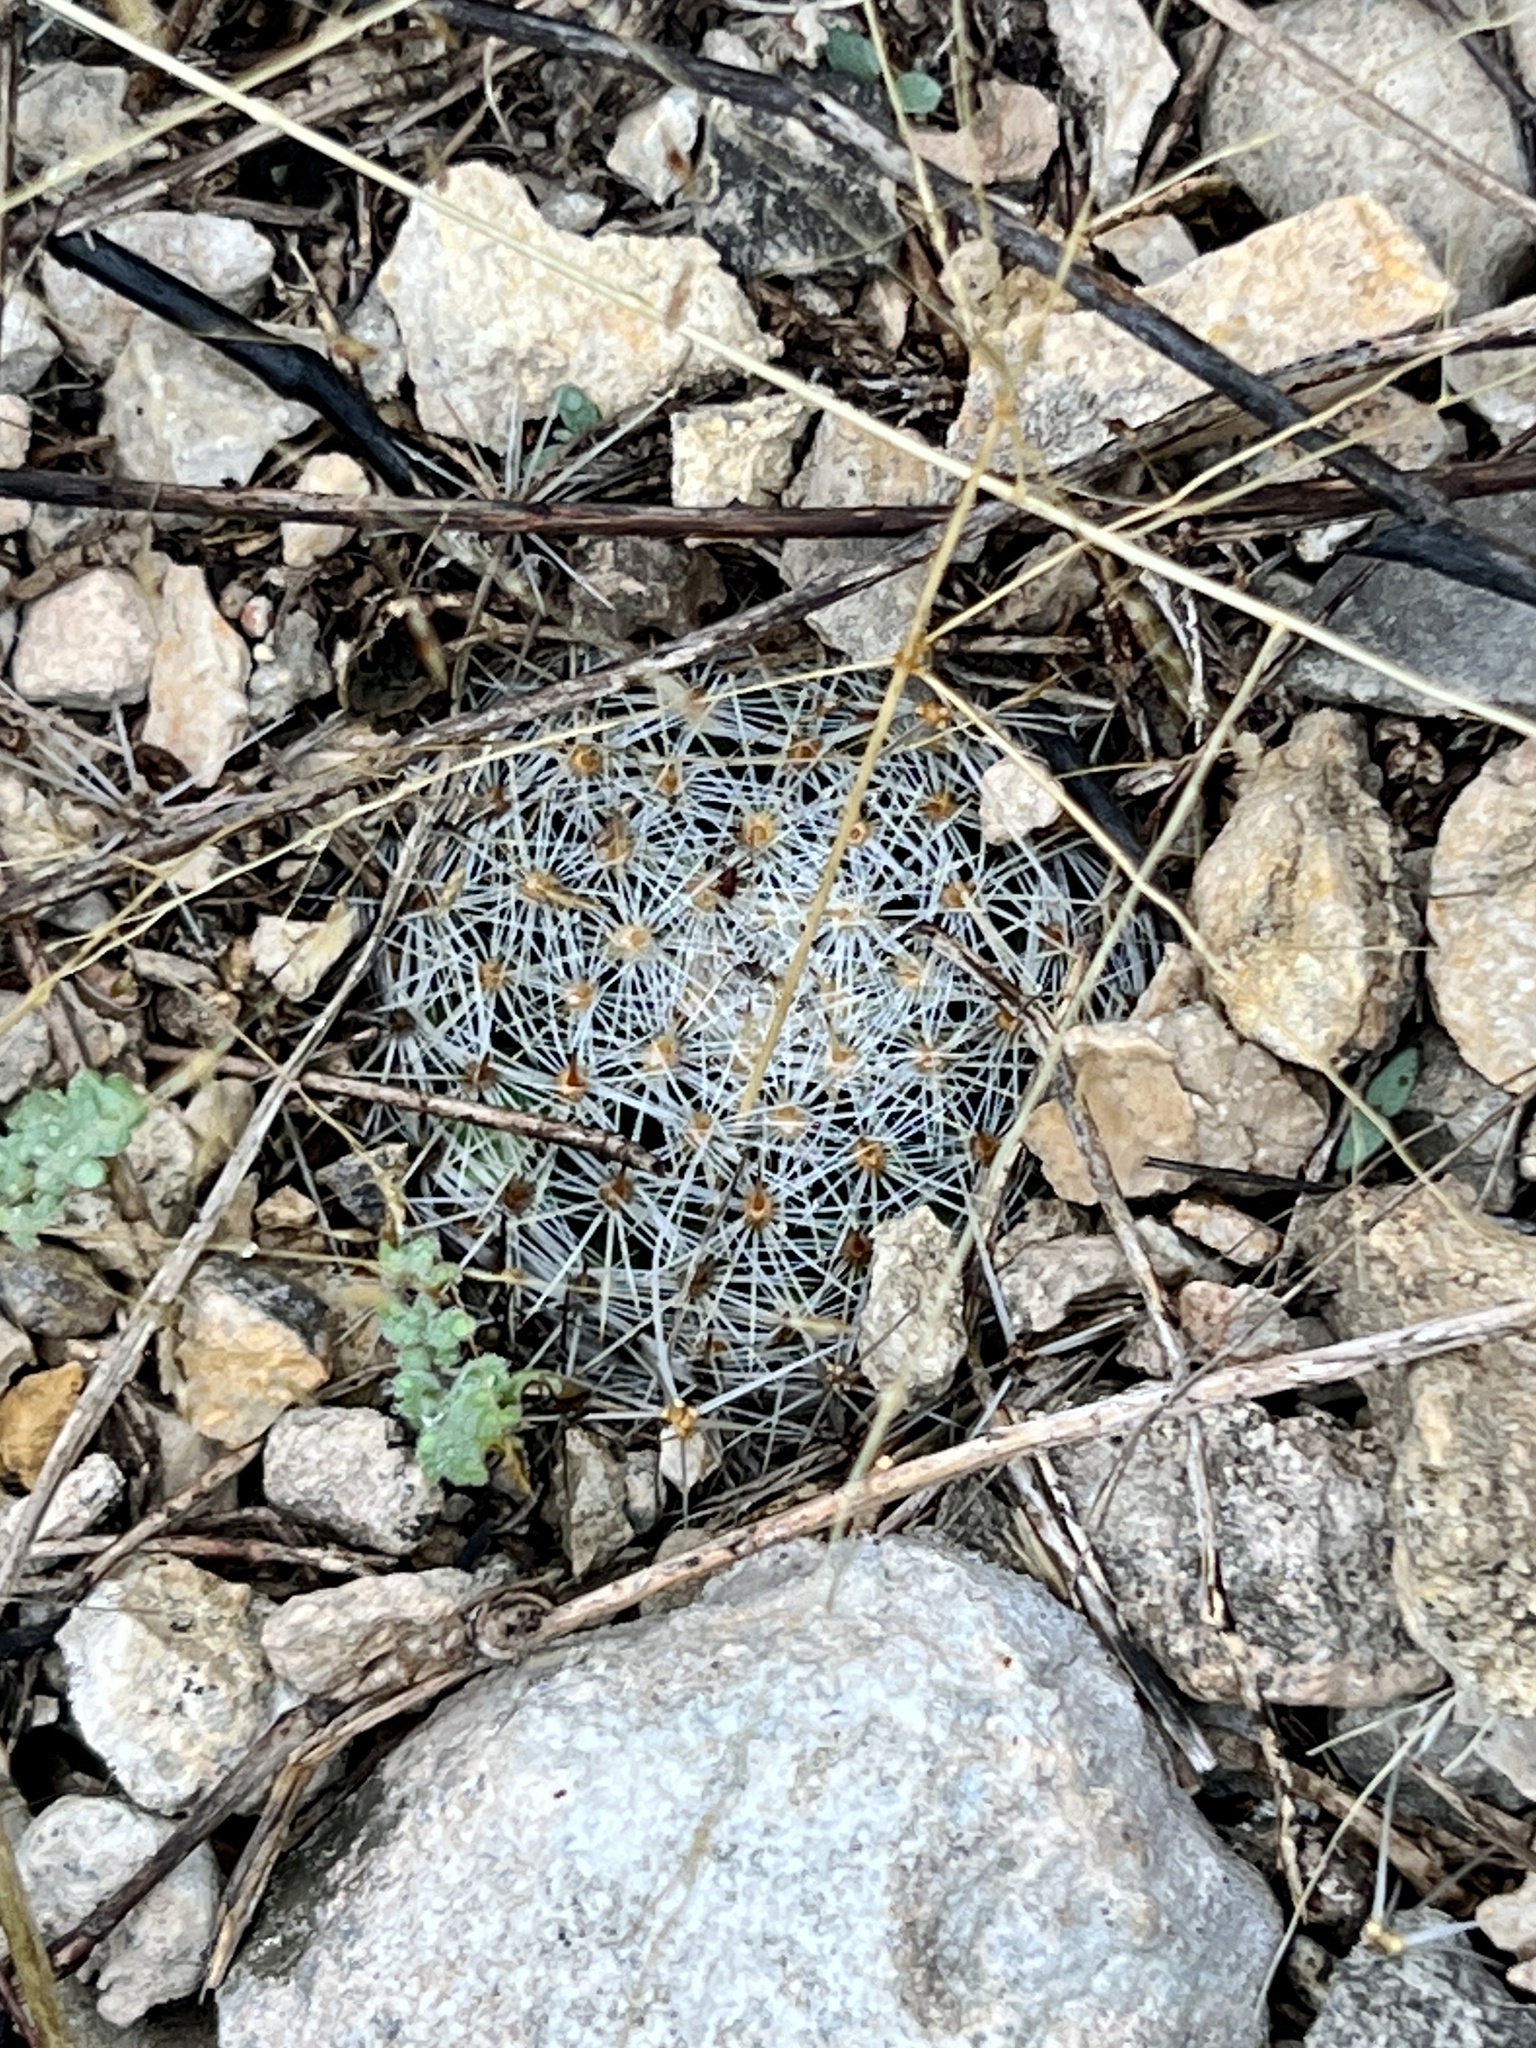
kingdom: Plantae
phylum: Tracheophyta
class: Magnoliopsida
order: Caryophyllales
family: Cactaceae
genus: Mammillaria
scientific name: Mammillaria heyderi
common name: Little nipple cactus
